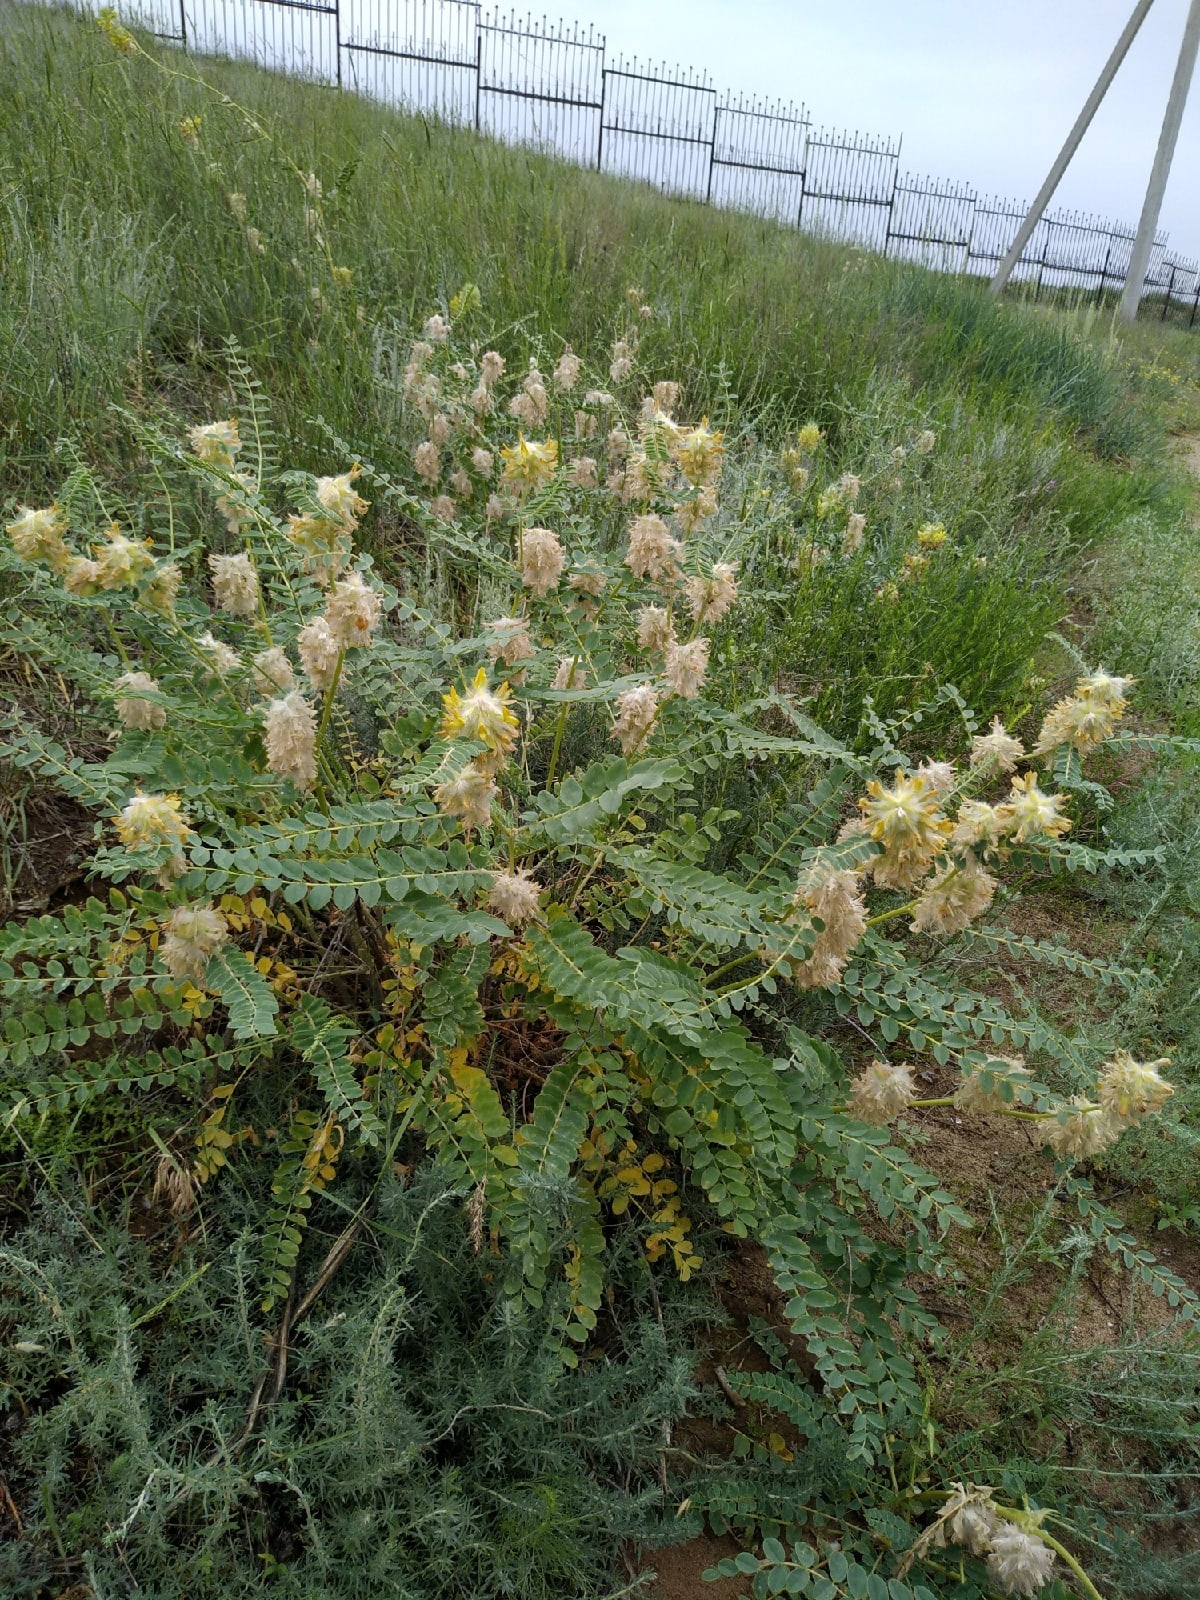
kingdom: Plantae
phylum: Tracheophyta
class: Magnoliopsida
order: Fabales
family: Fabaceae
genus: Astragalus
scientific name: Astragalus vulpinus
